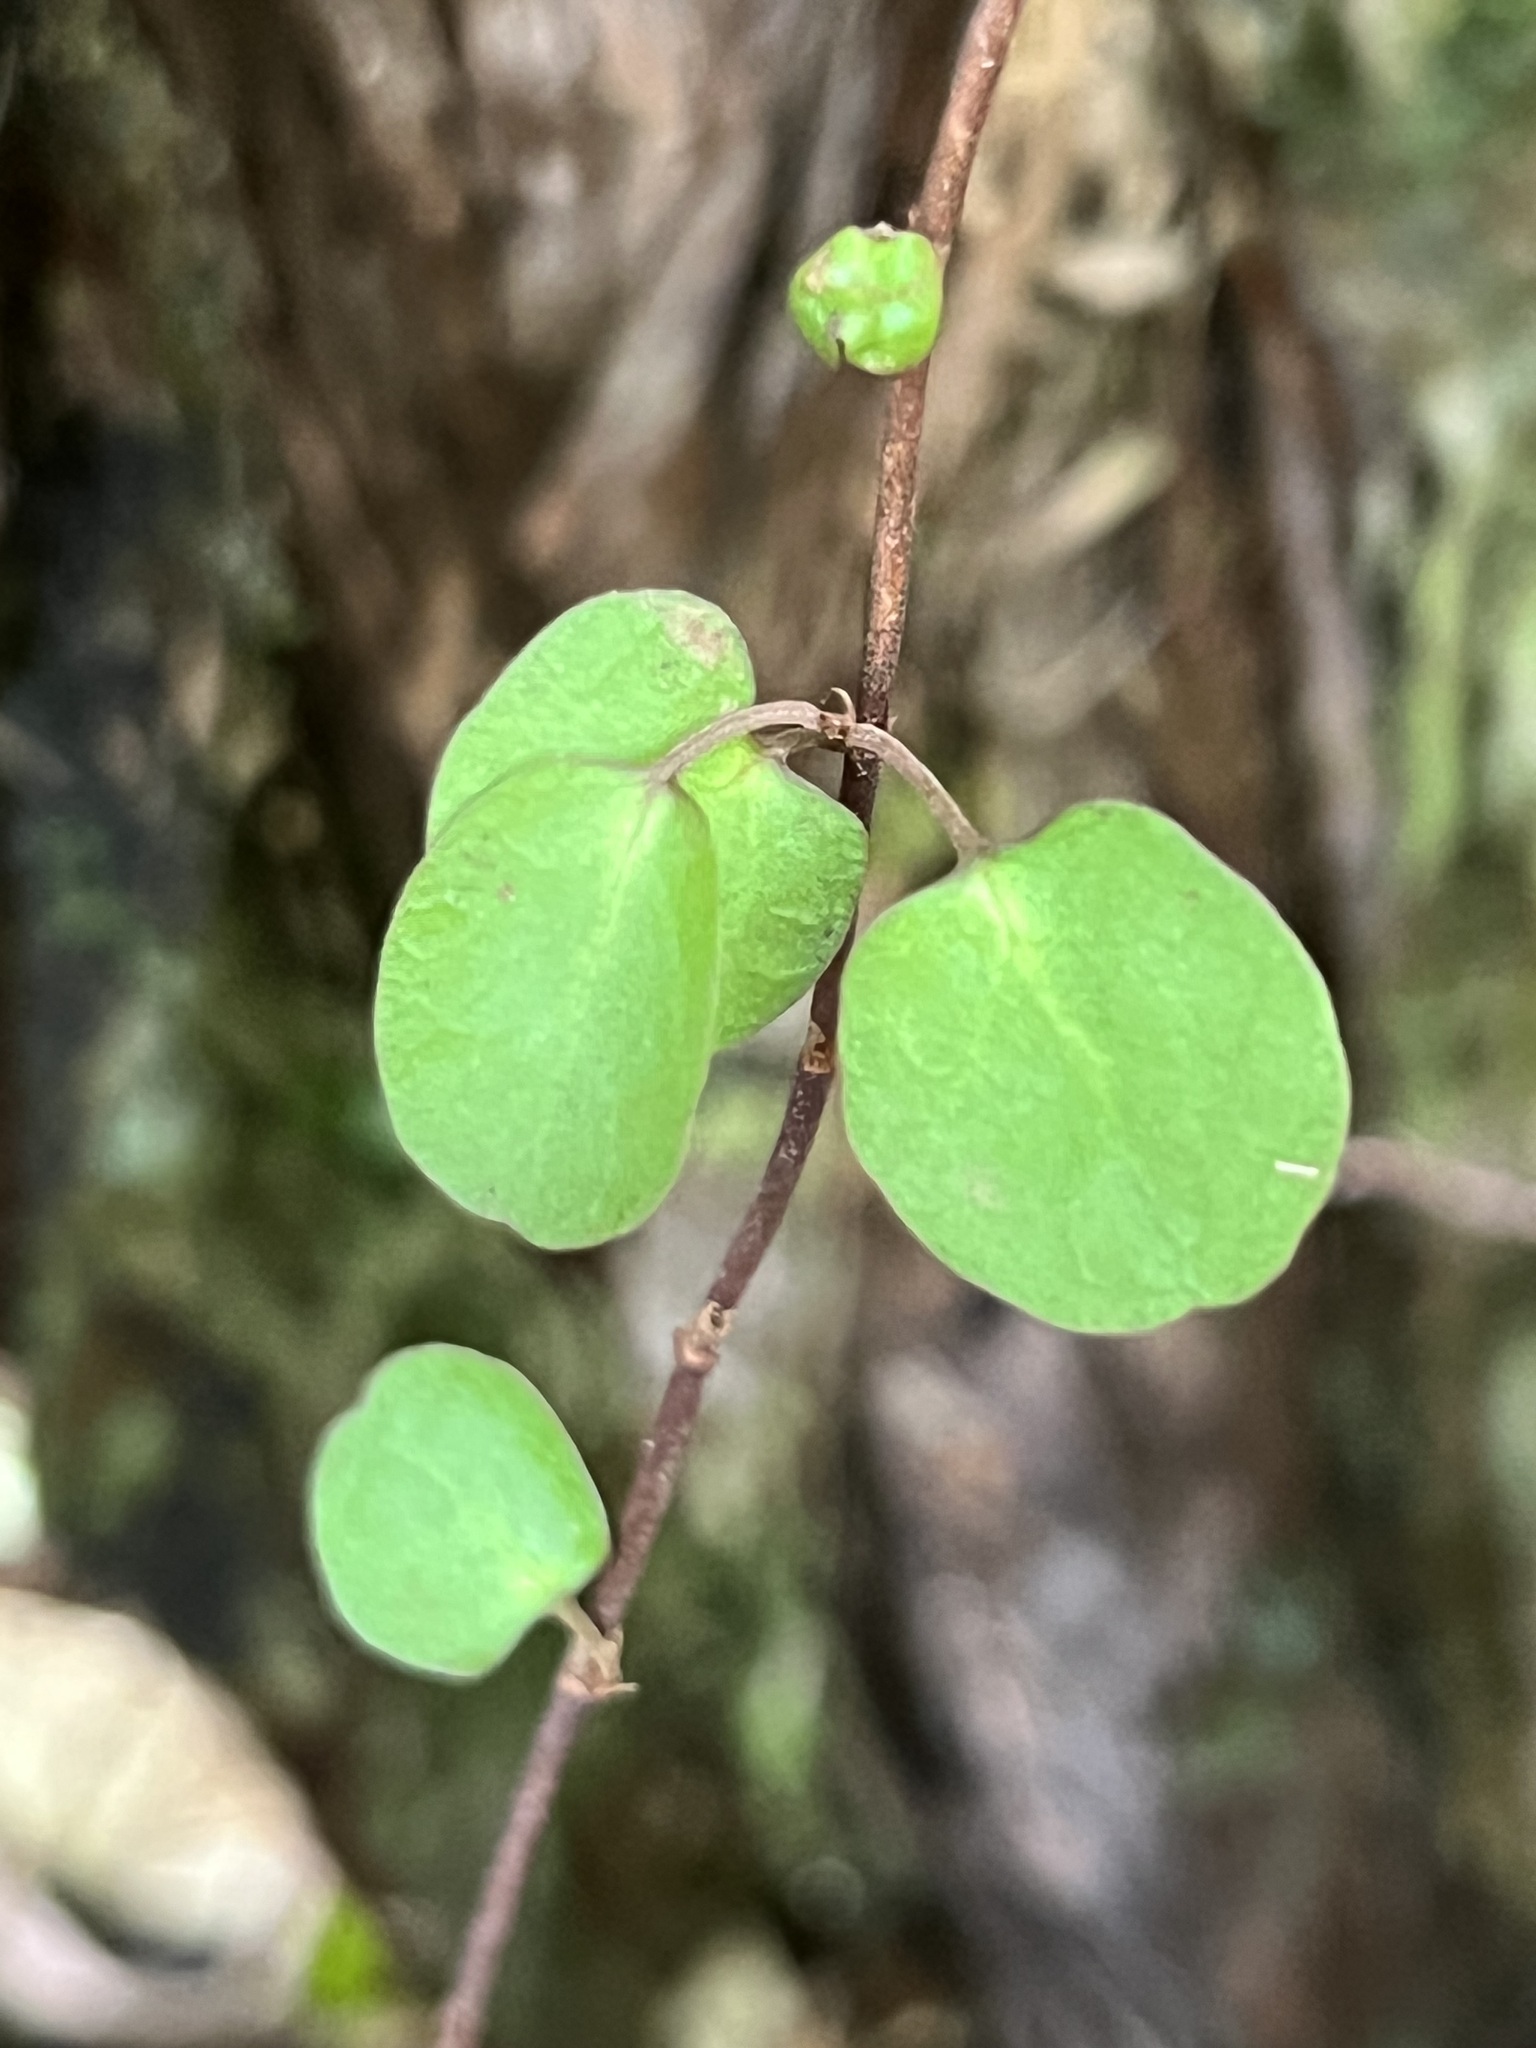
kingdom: Plantae
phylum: Tracheophyta
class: Magnoliopsida
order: Caryophyllales
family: Polygonaceae
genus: Muehlenbeckia
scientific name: Muehlenbeckia complexa
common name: Wireplant
